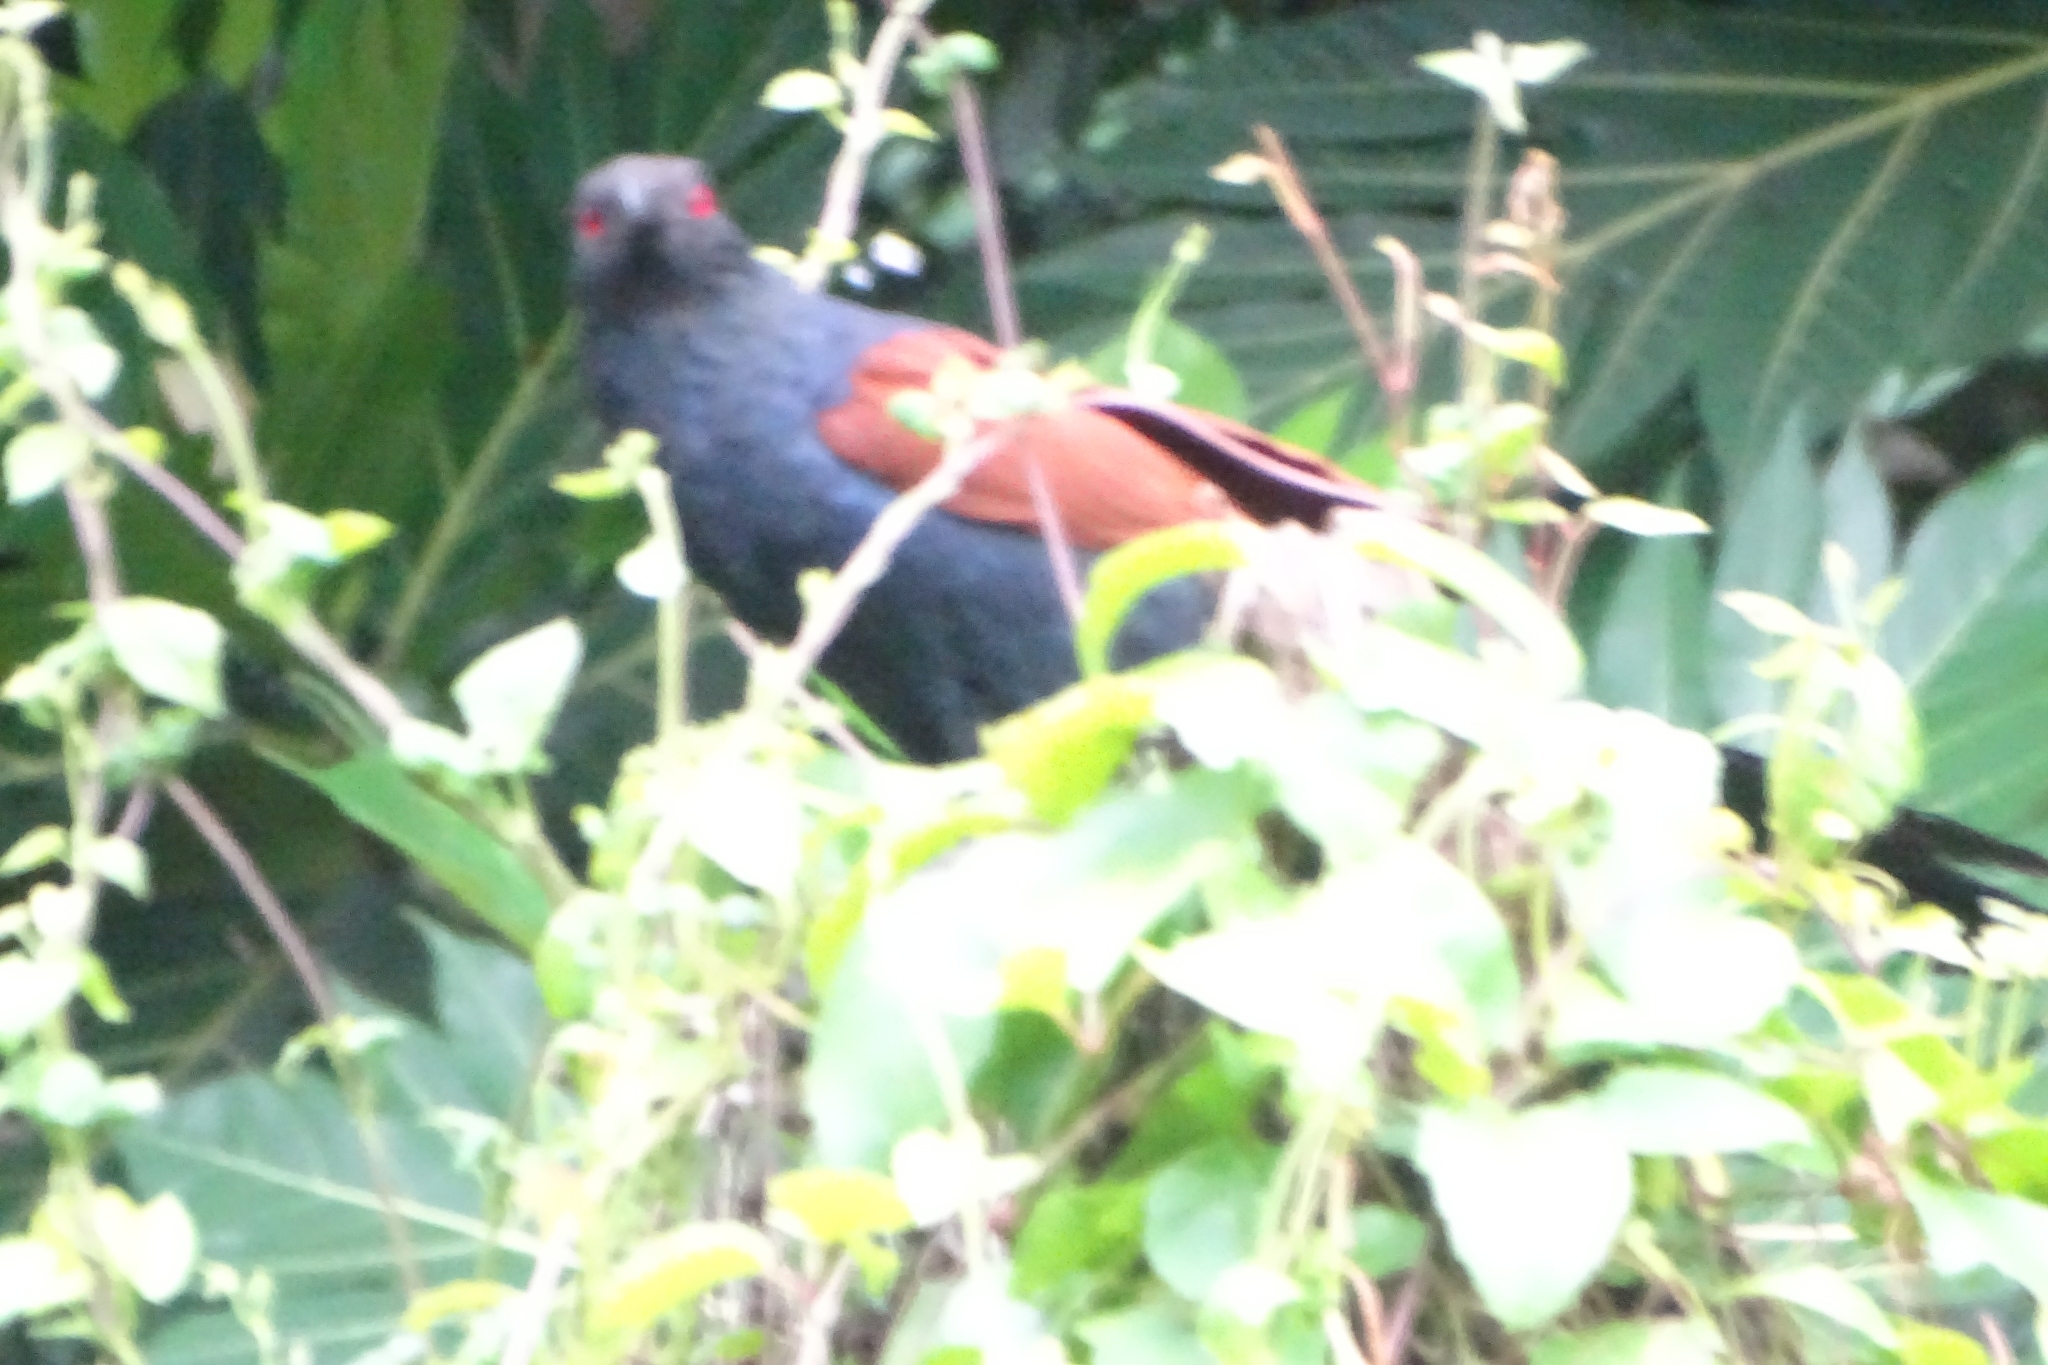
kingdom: Animalia
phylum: Chordata
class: Aves
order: Cuculiformes
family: Cuculidae
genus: Centropus
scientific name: Centropus sinensis
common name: Greater coucal
